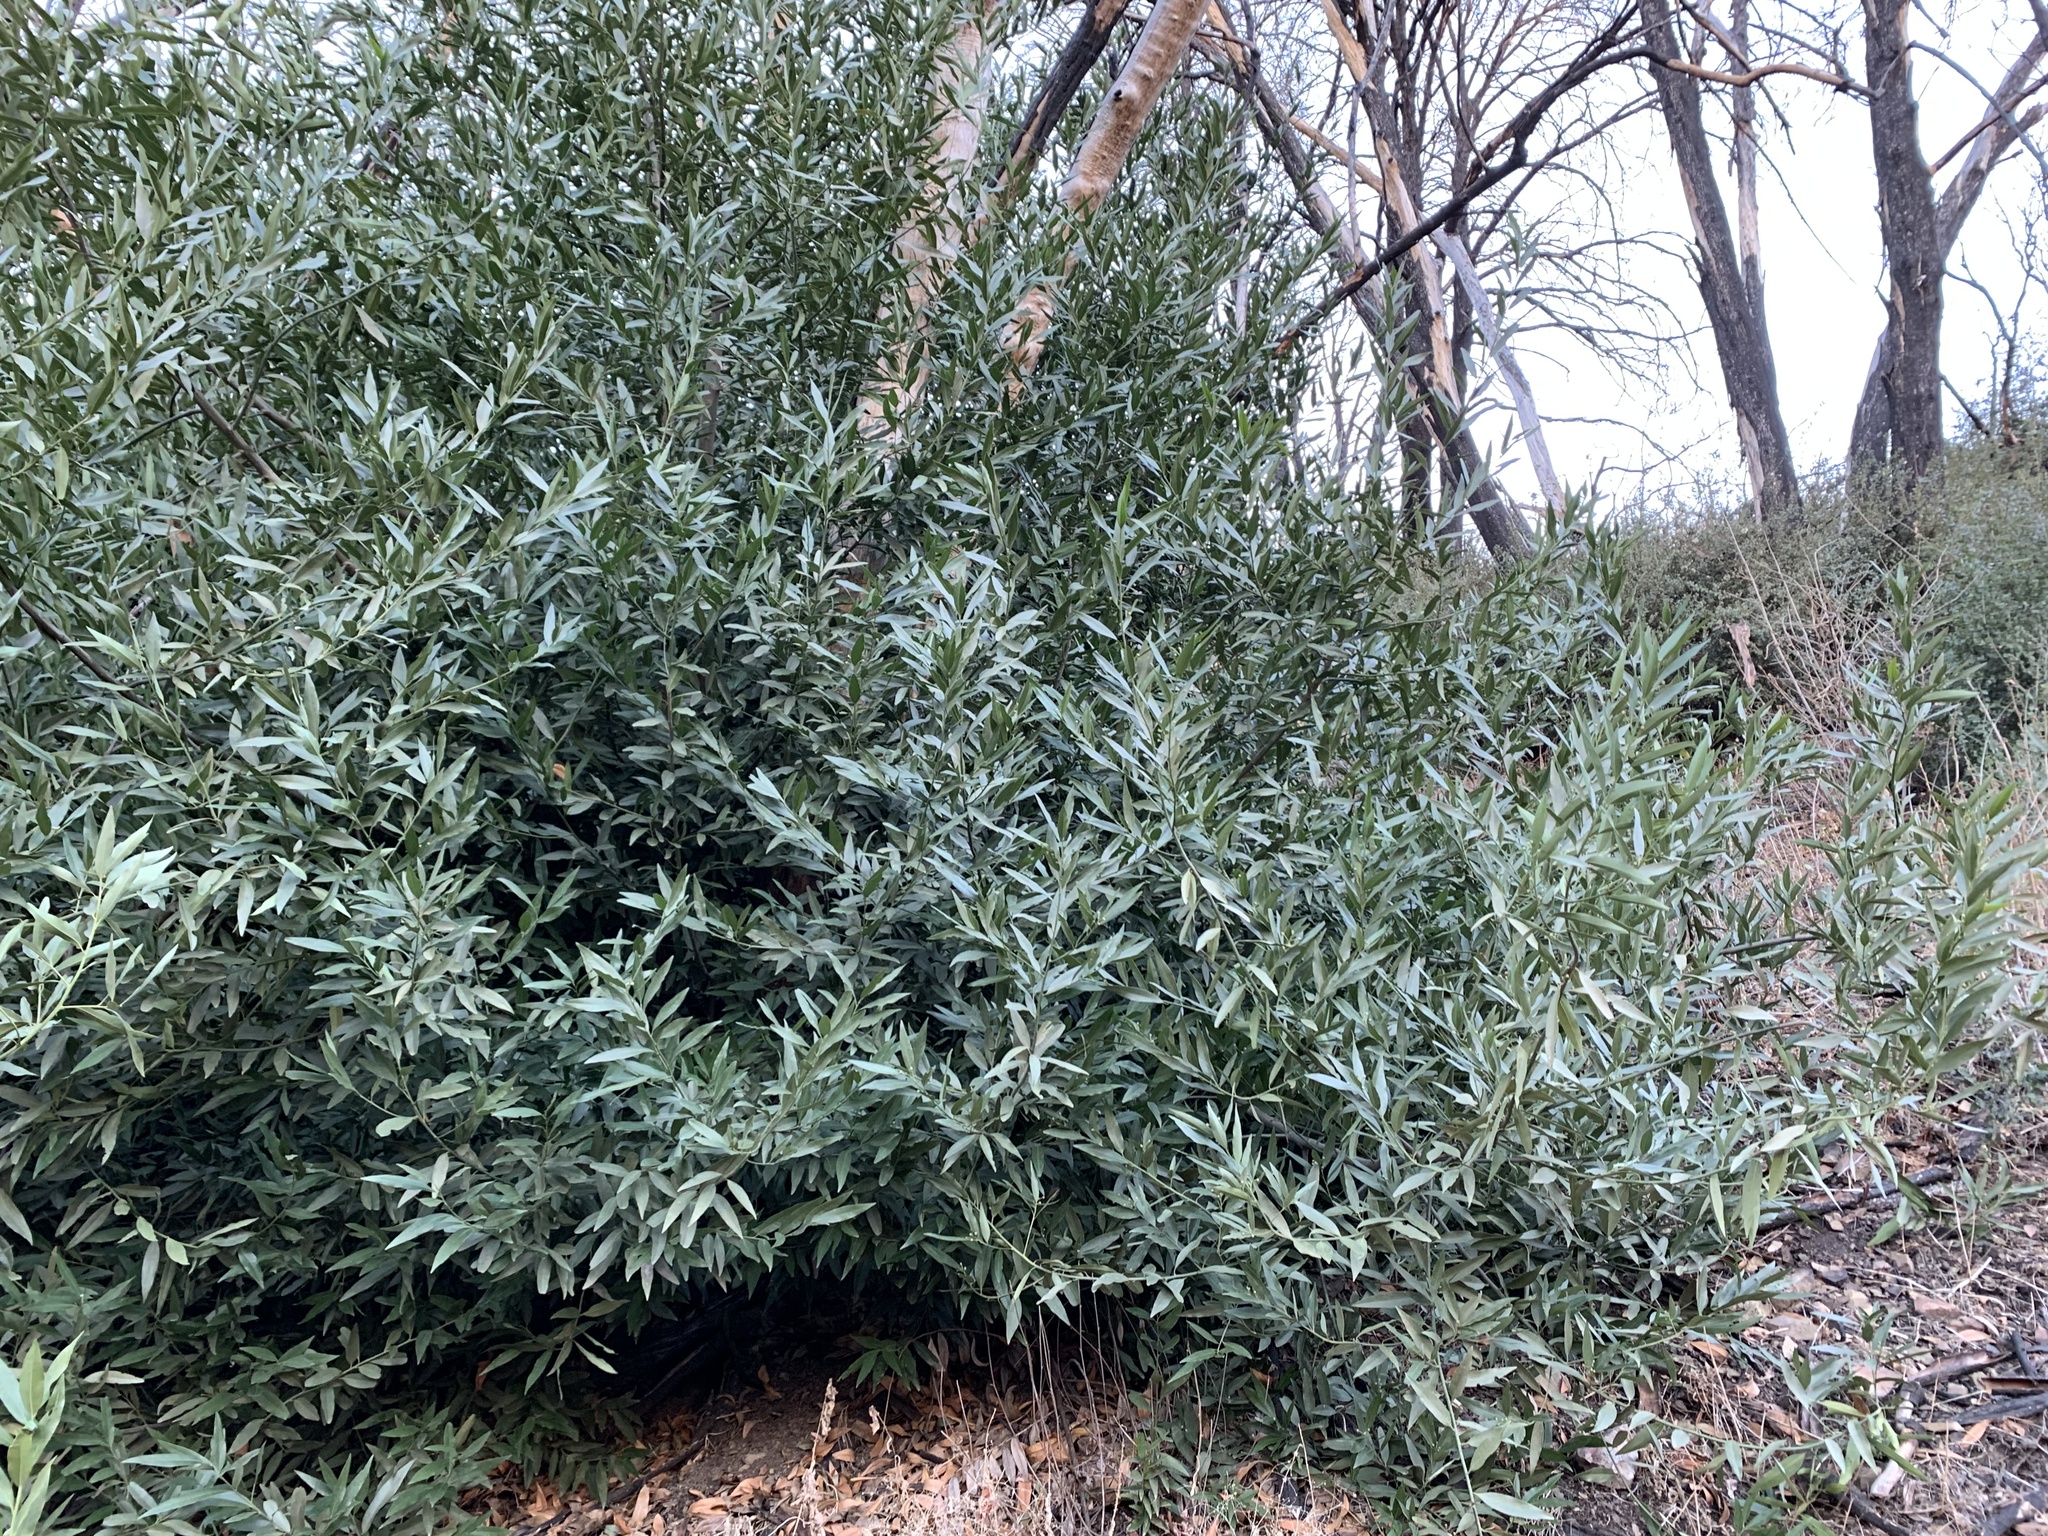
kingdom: Plantae
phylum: Tracheophyta
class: Magnoliopsida
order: Laurales
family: Lauraceae
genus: Umbellularia
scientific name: Umbellularia californica
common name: California bay
